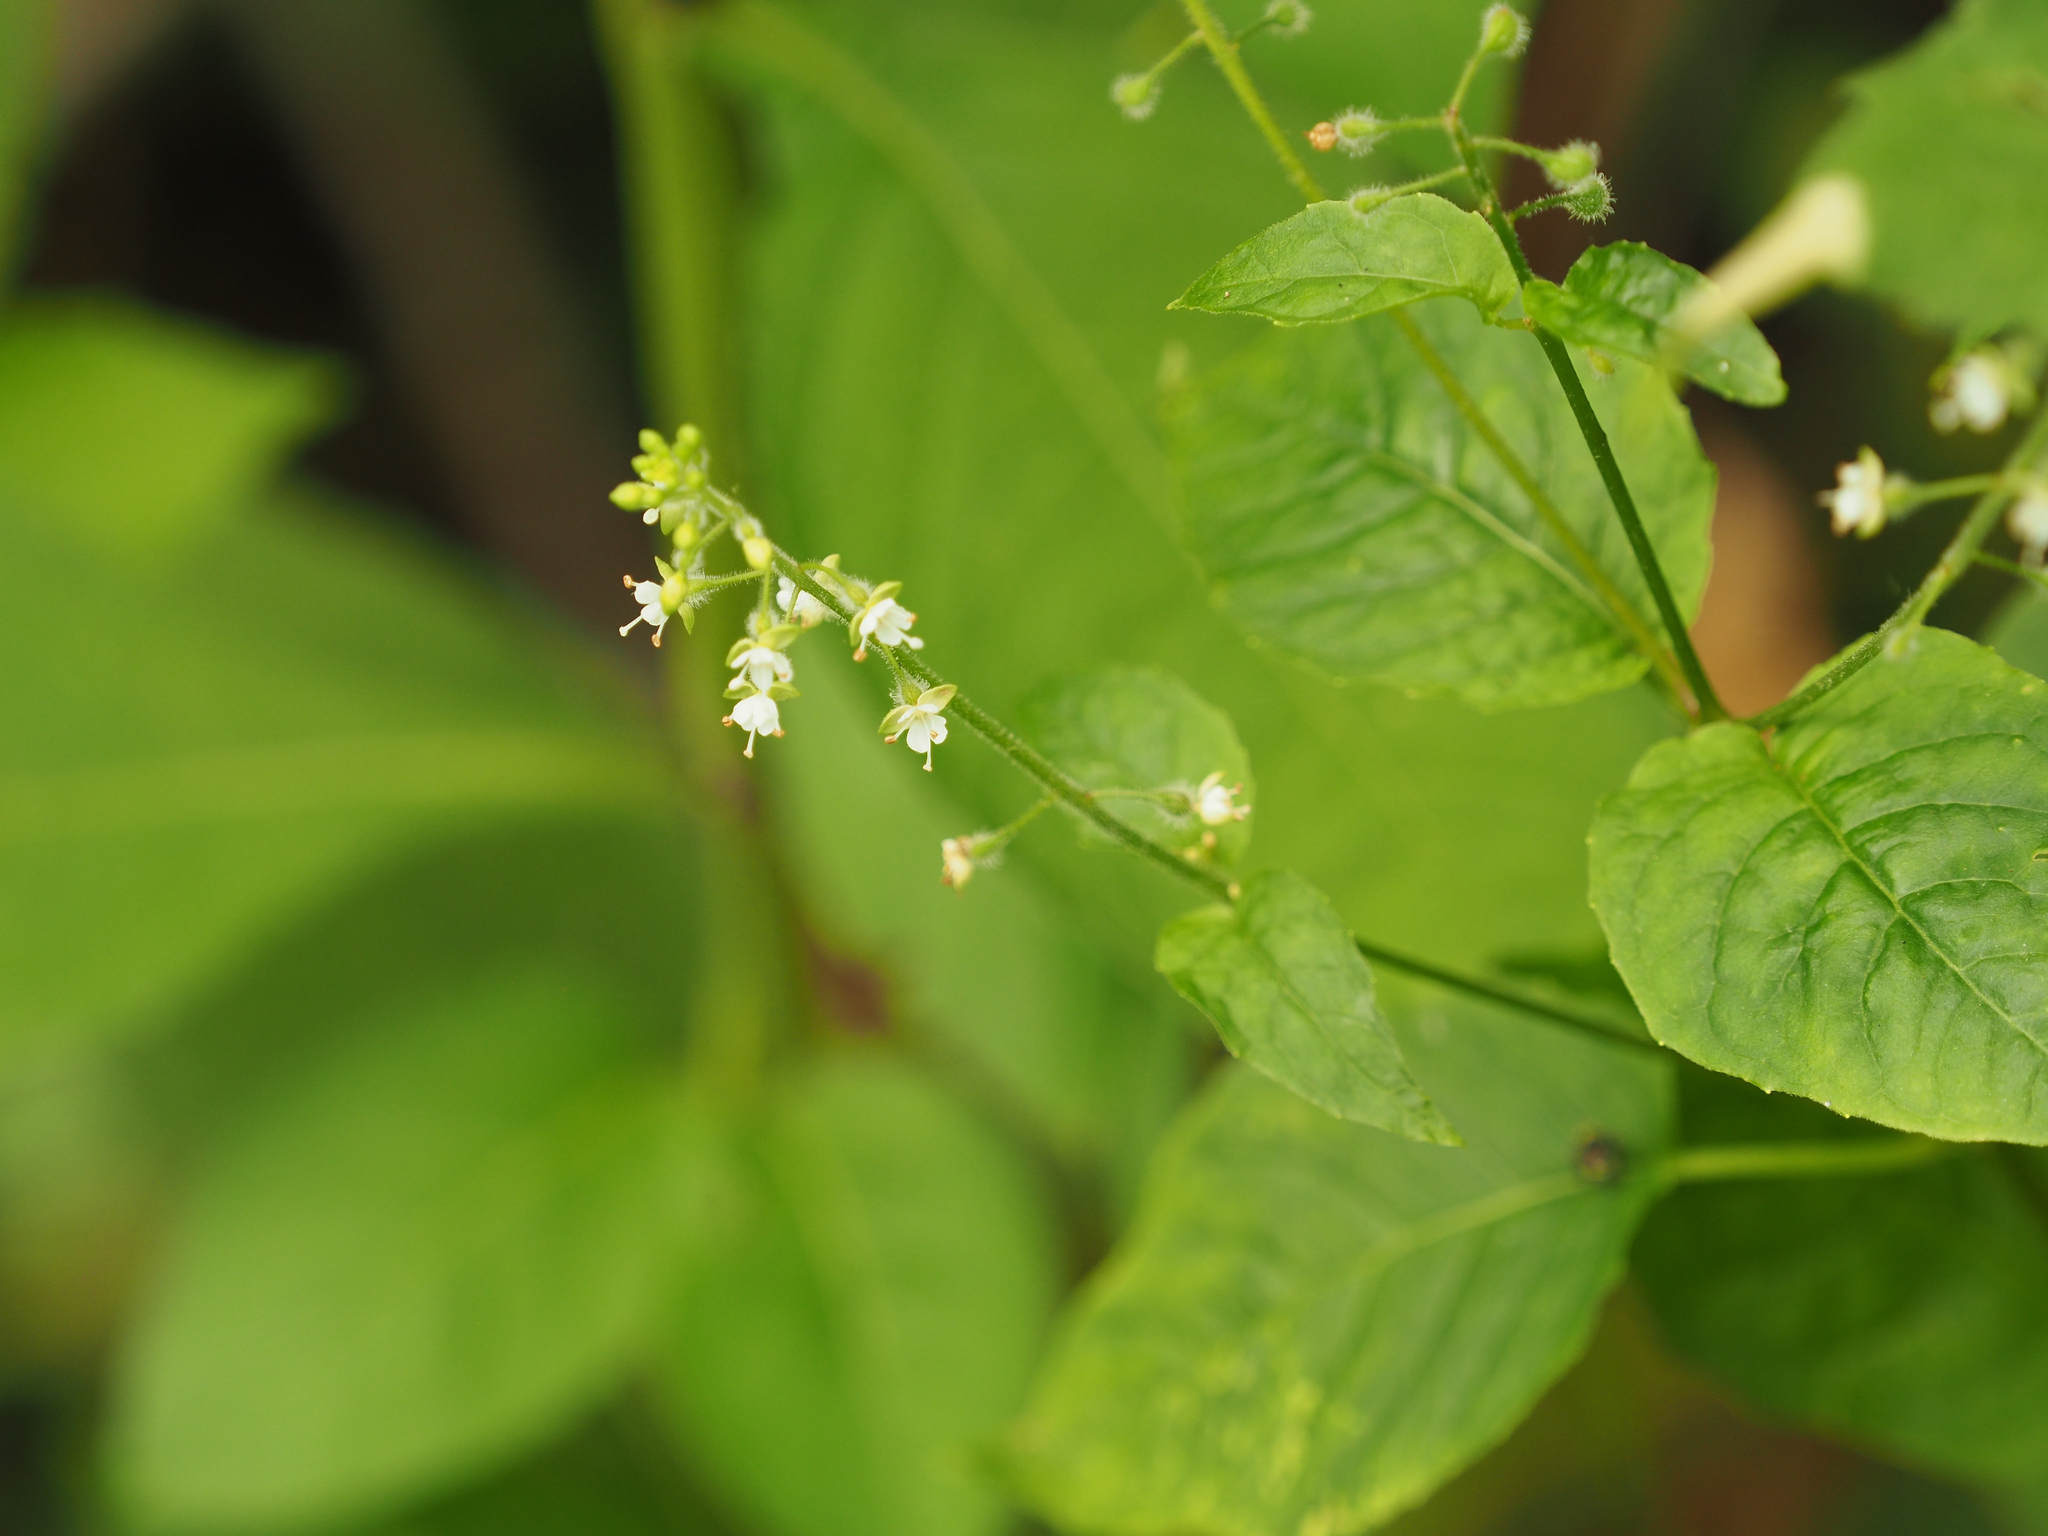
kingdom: Plantae
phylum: Tracheophyta
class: Magnoliopsida
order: Myrtales
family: Onagraceae
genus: Circaea
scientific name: Circaea canadensis
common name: Broad-leaved enchanter's nightshade
